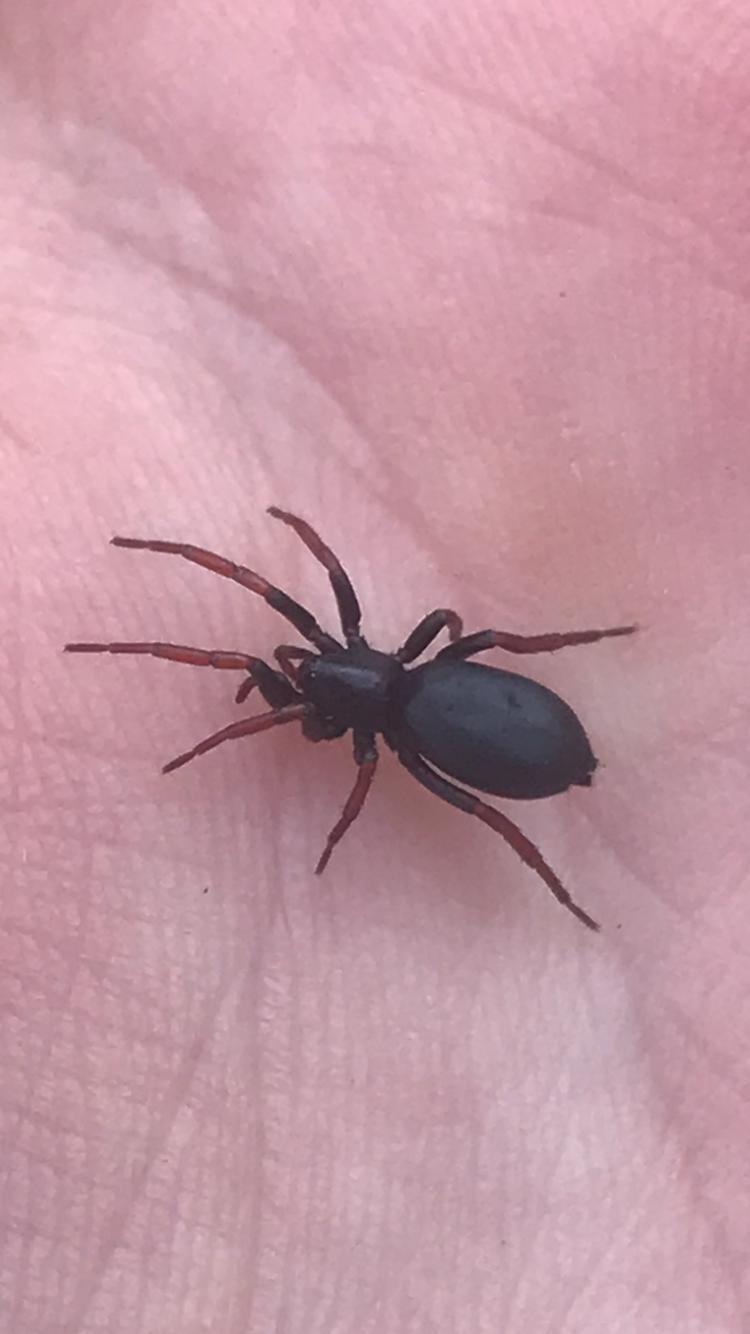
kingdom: Animalia
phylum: Arthropoda
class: Arachnida
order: Araneae
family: Gnaphosidae
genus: Trachyzelotes
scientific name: Trachyzelotes pedestris
